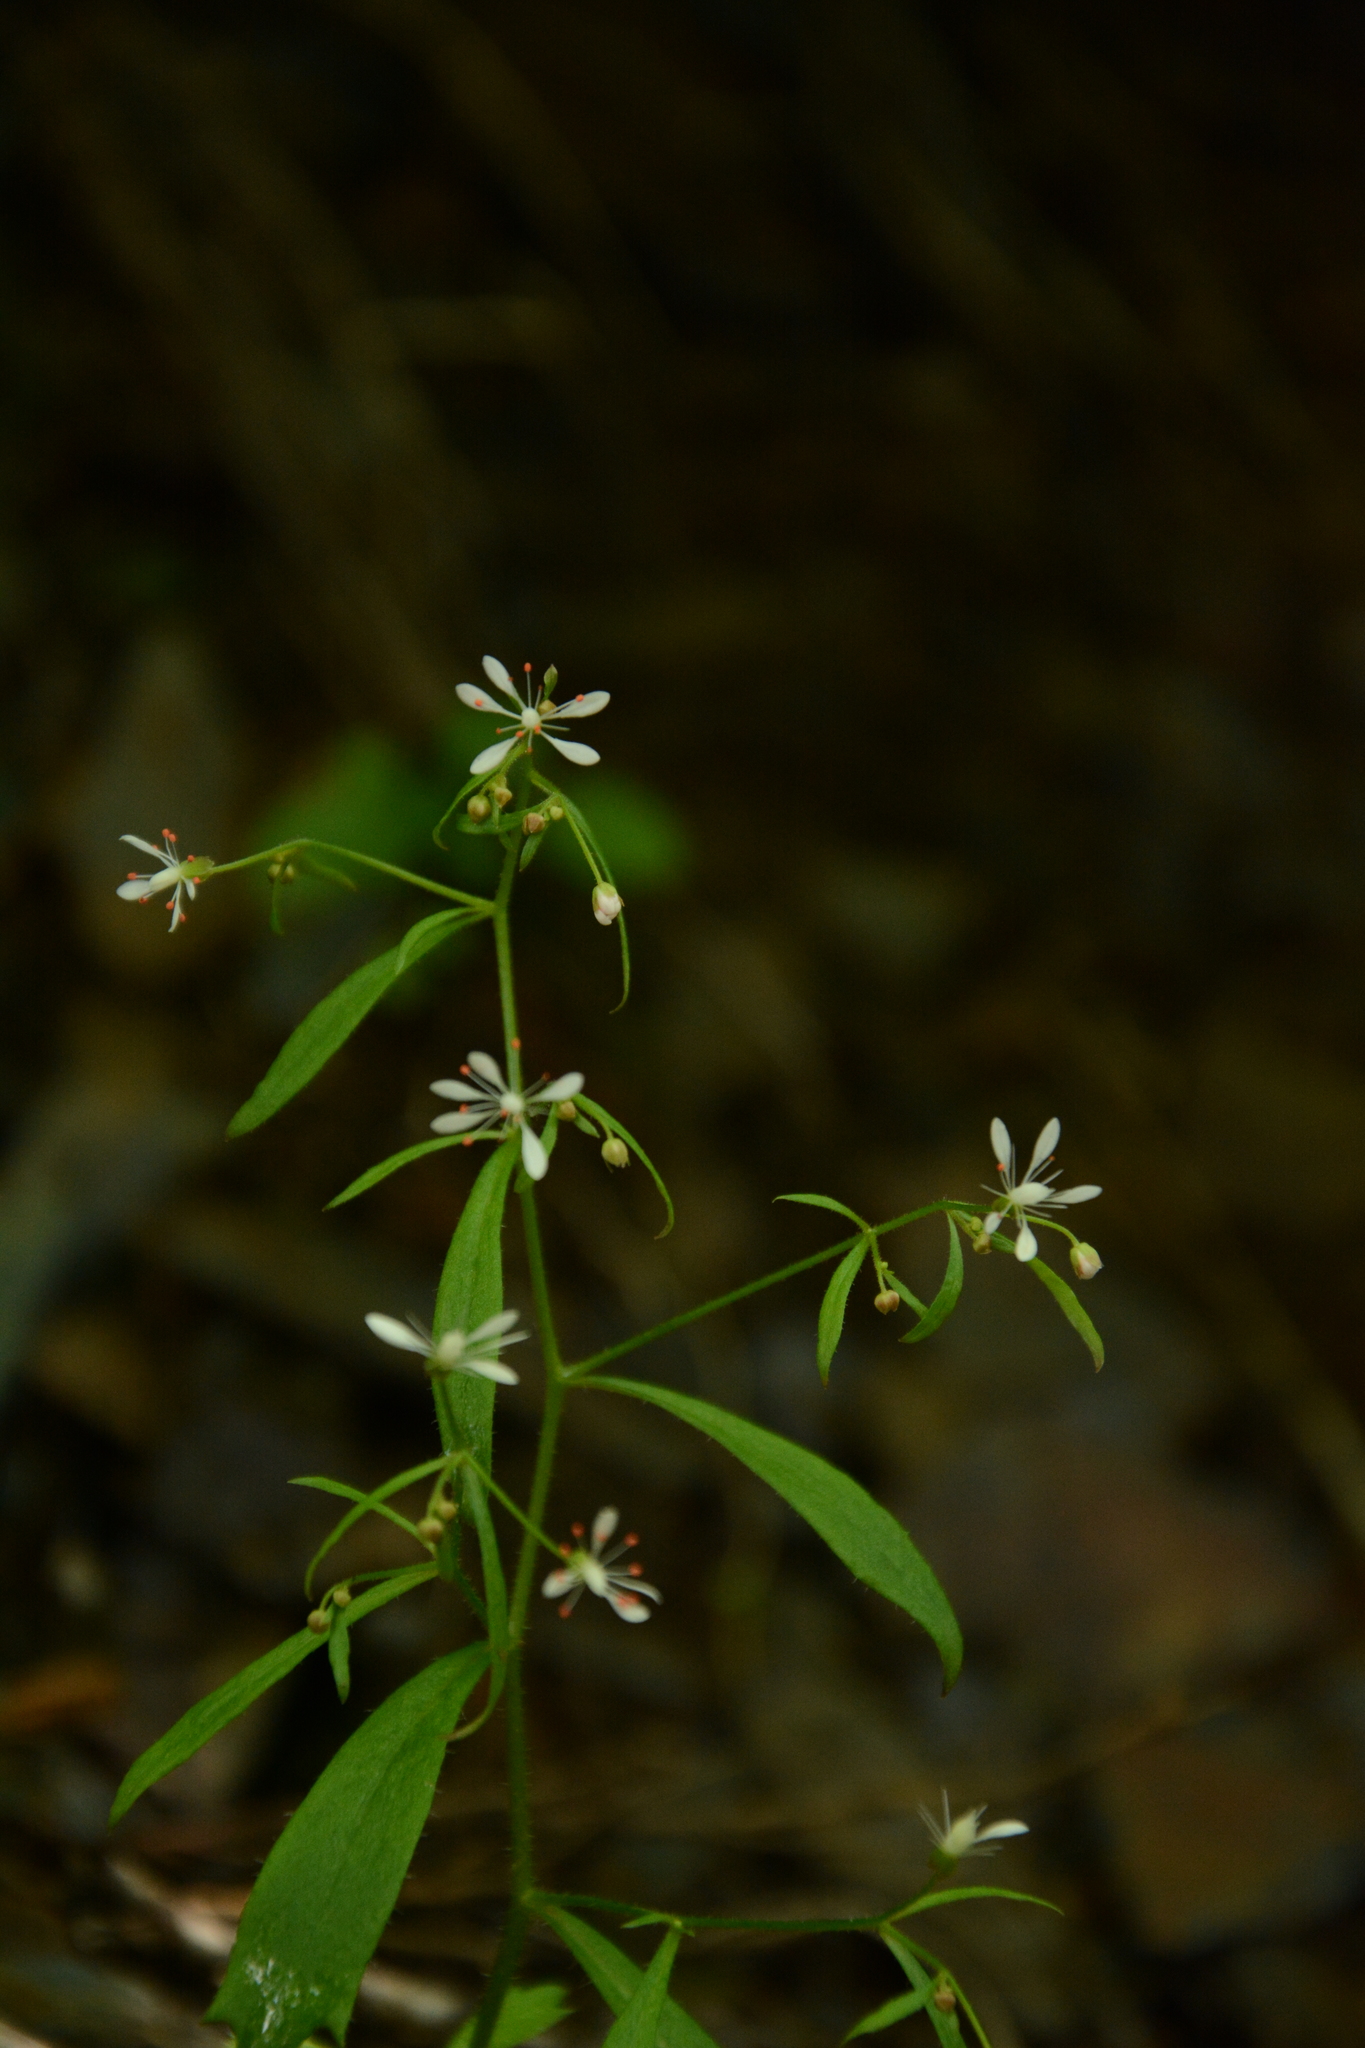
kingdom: Plantae
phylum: Tracheophyta
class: Magnoliopsida
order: Saxifragales
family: Saxifragaceae
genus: Micranthes
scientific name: Micranthes petiolaris
